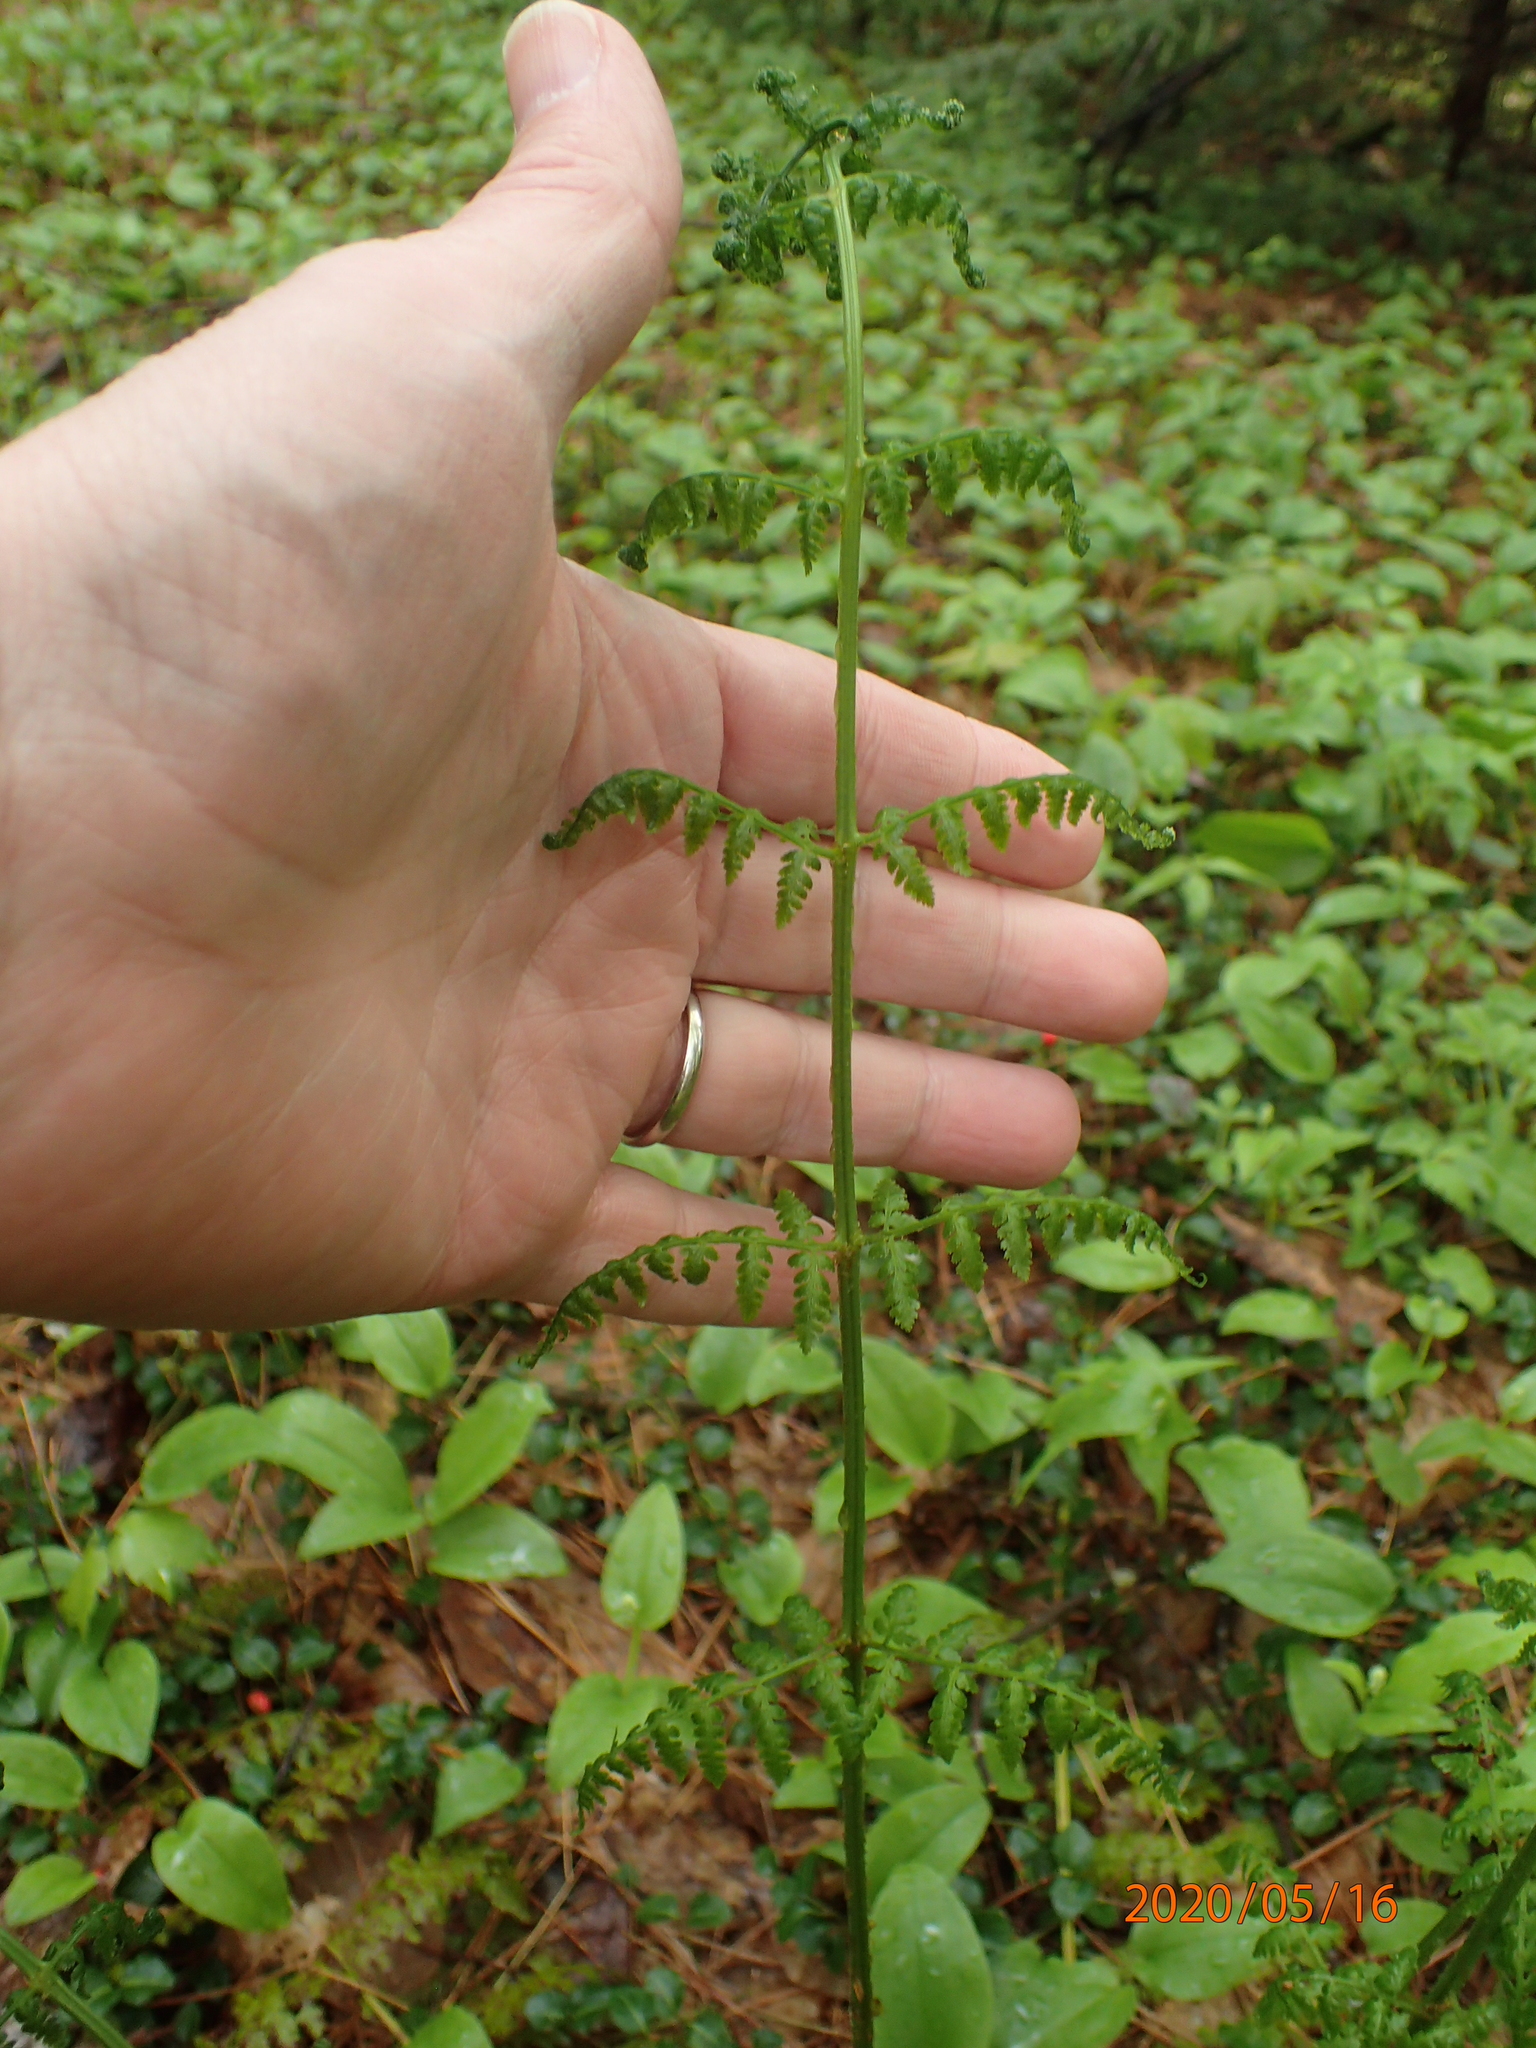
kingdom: Plantae
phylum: Tracheophyta
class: Polypodiopsida
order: Polypodiales
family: Dryopteridaceae
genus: Dryopteris
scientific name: Dryopteris intermedia
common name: Evergreen wood fern
